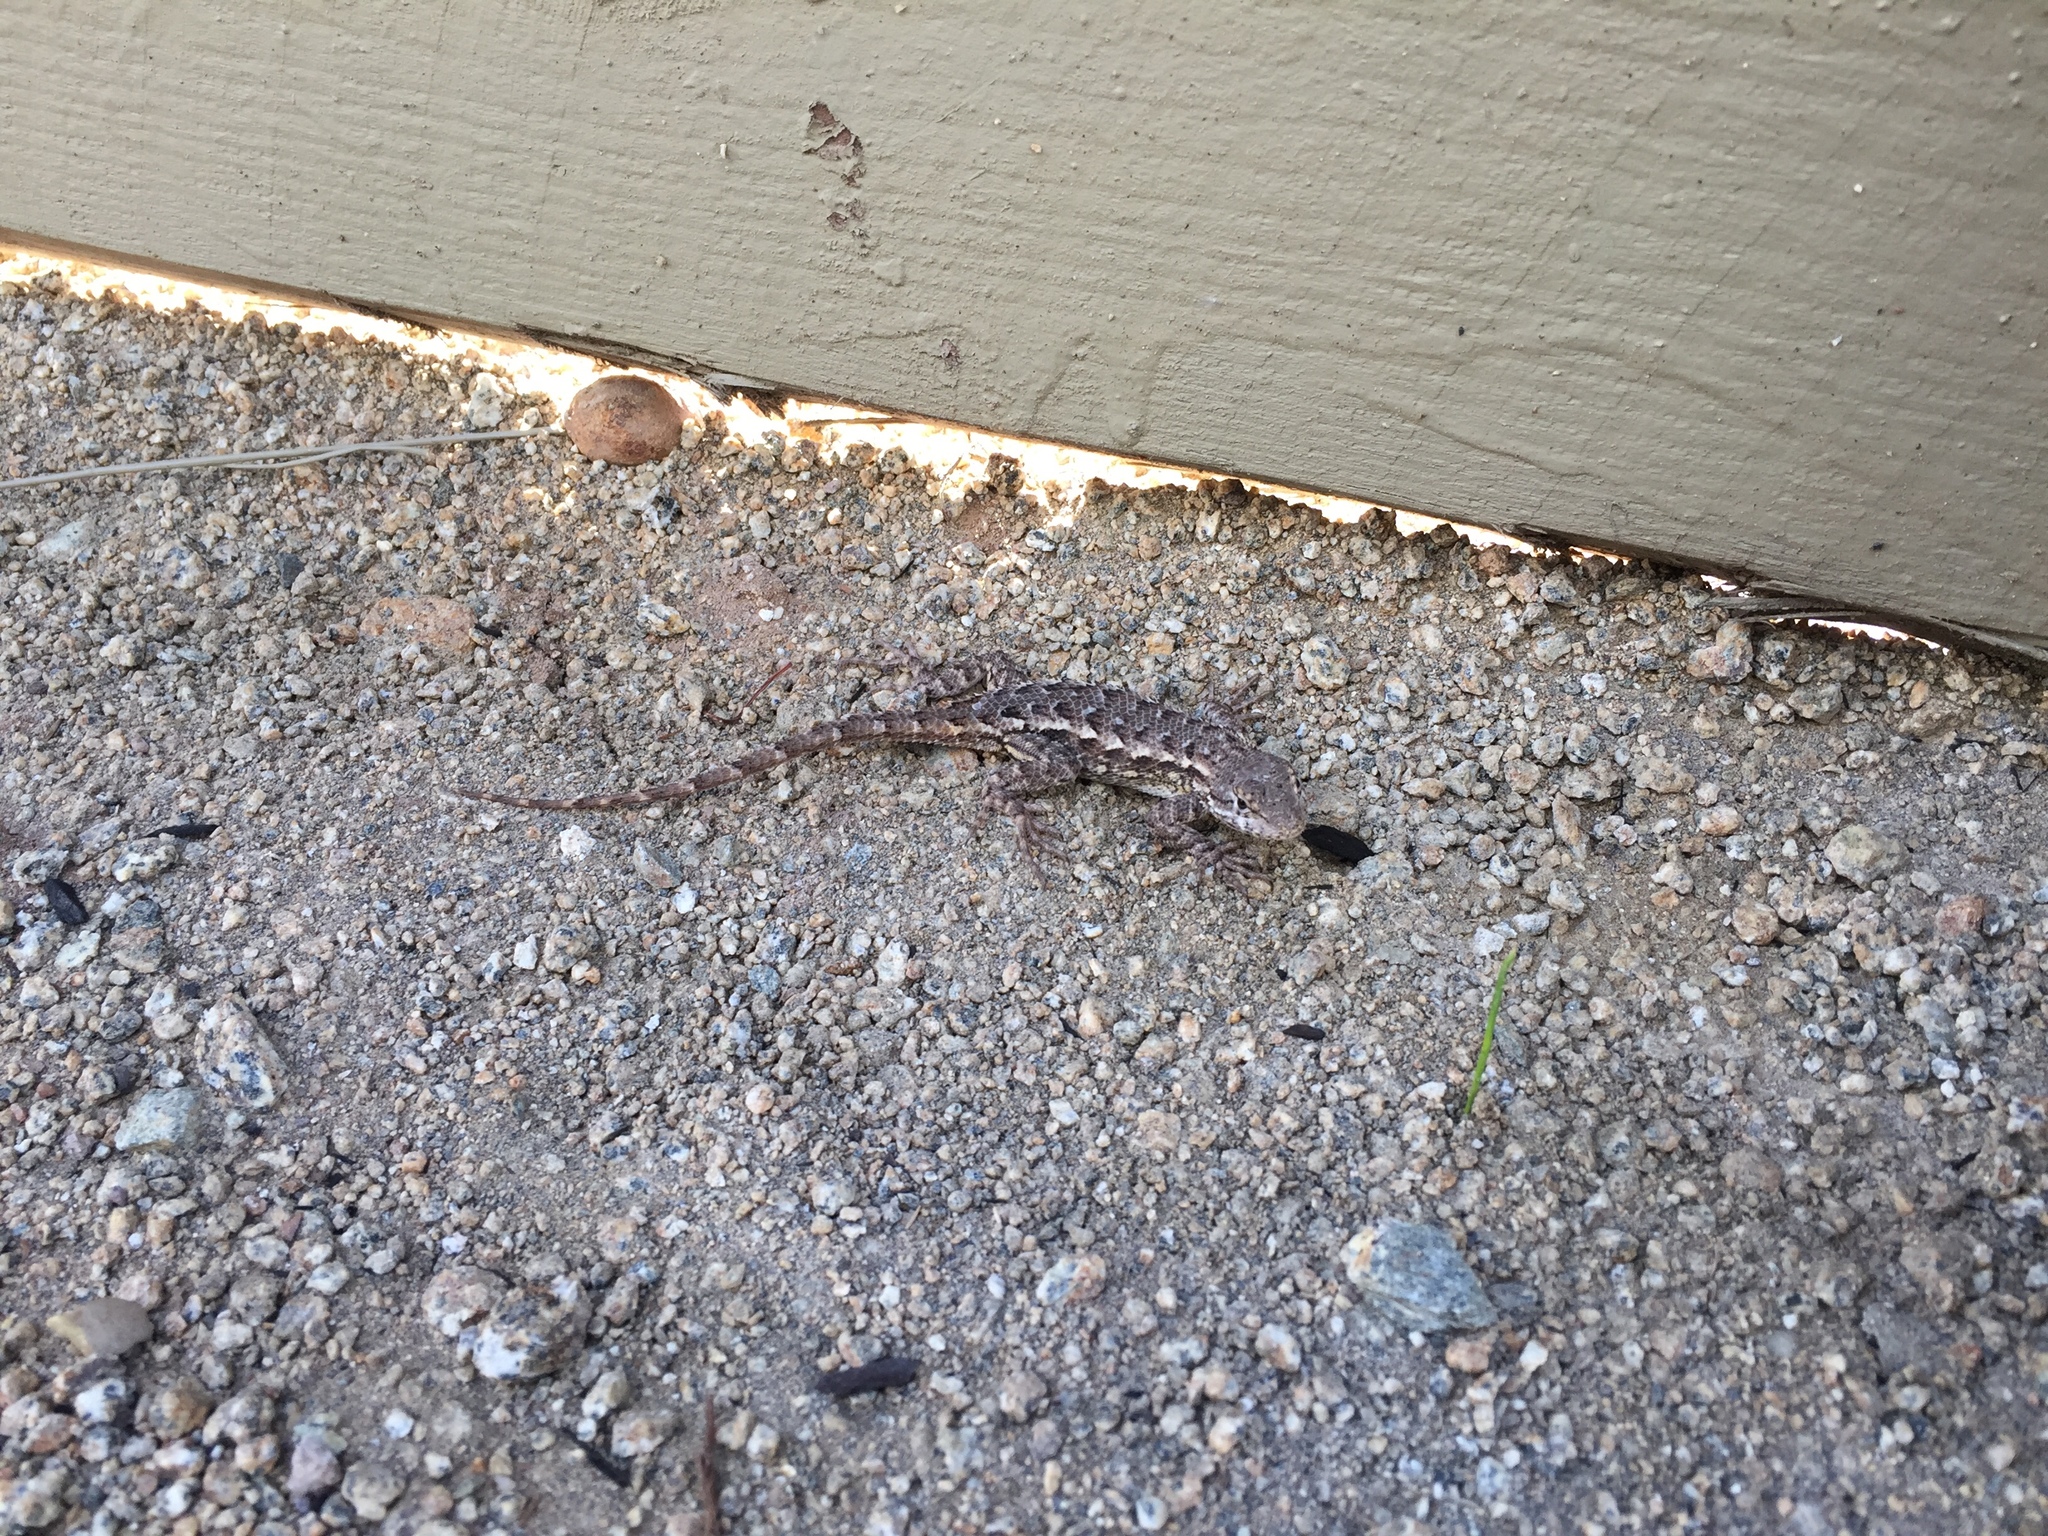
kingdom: Animalia
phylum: Chordata
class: Squamata
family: Phrynosomatidae
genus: Sceloporus
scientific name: Sceloporus occidentalis
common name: Western fence lizard
